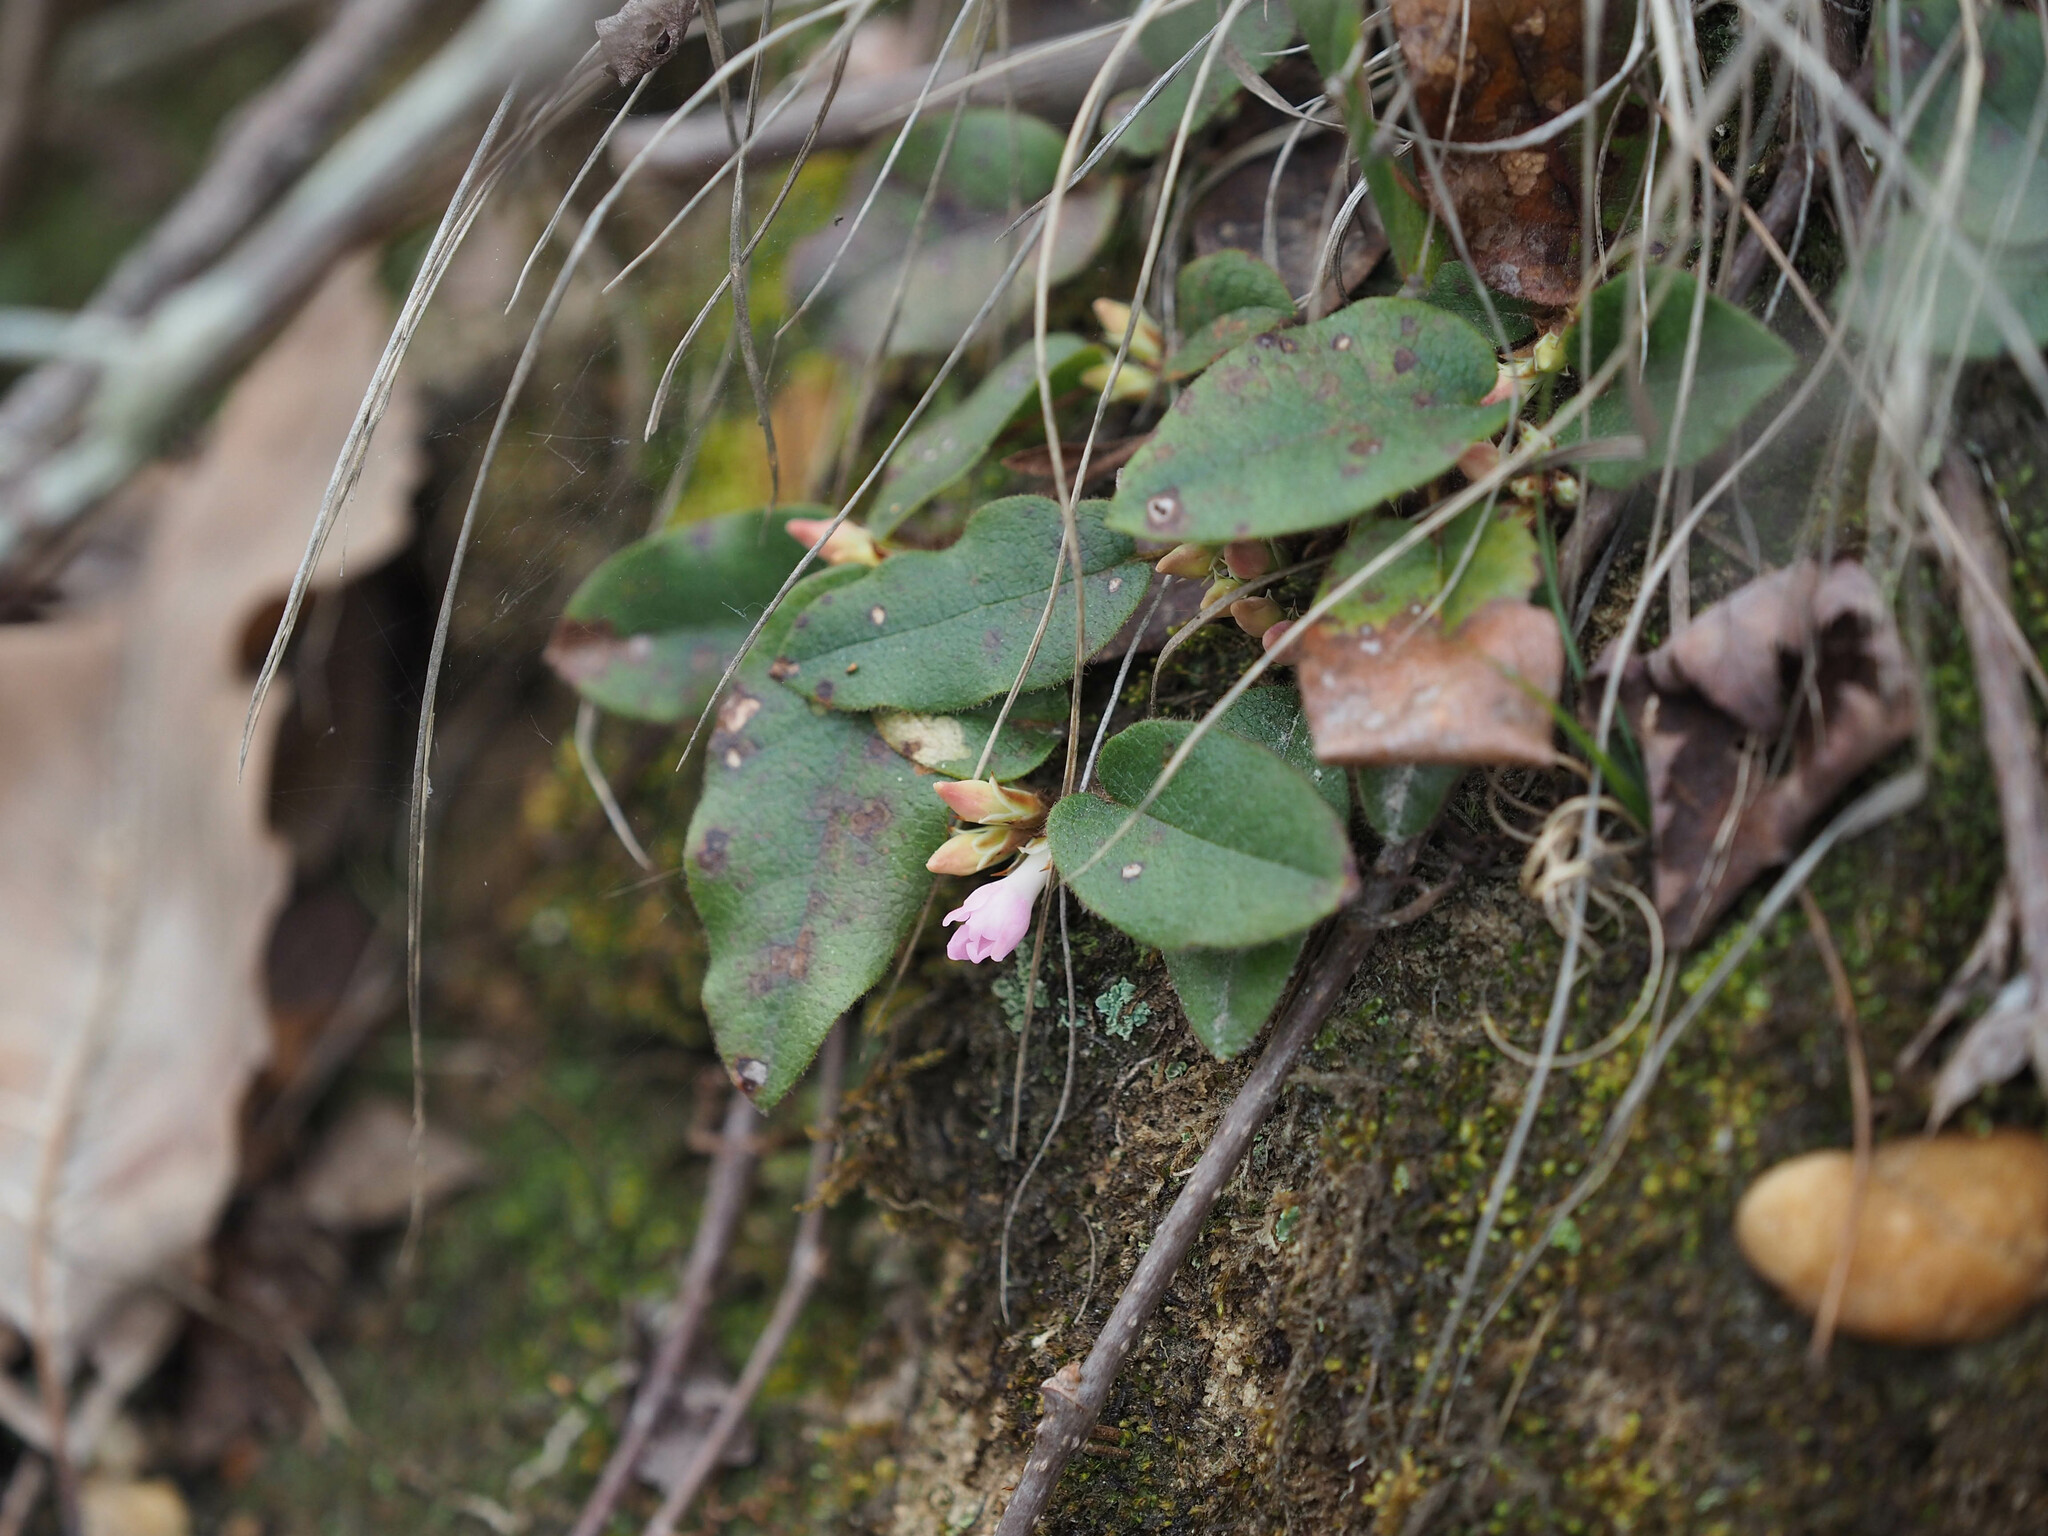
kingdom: Plantae
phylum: Tracheophyta
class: Magnoliopsida
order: Ericales
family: Ericaceae
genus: Epigaea
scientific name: Epigaea repens
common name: Gravelroot
